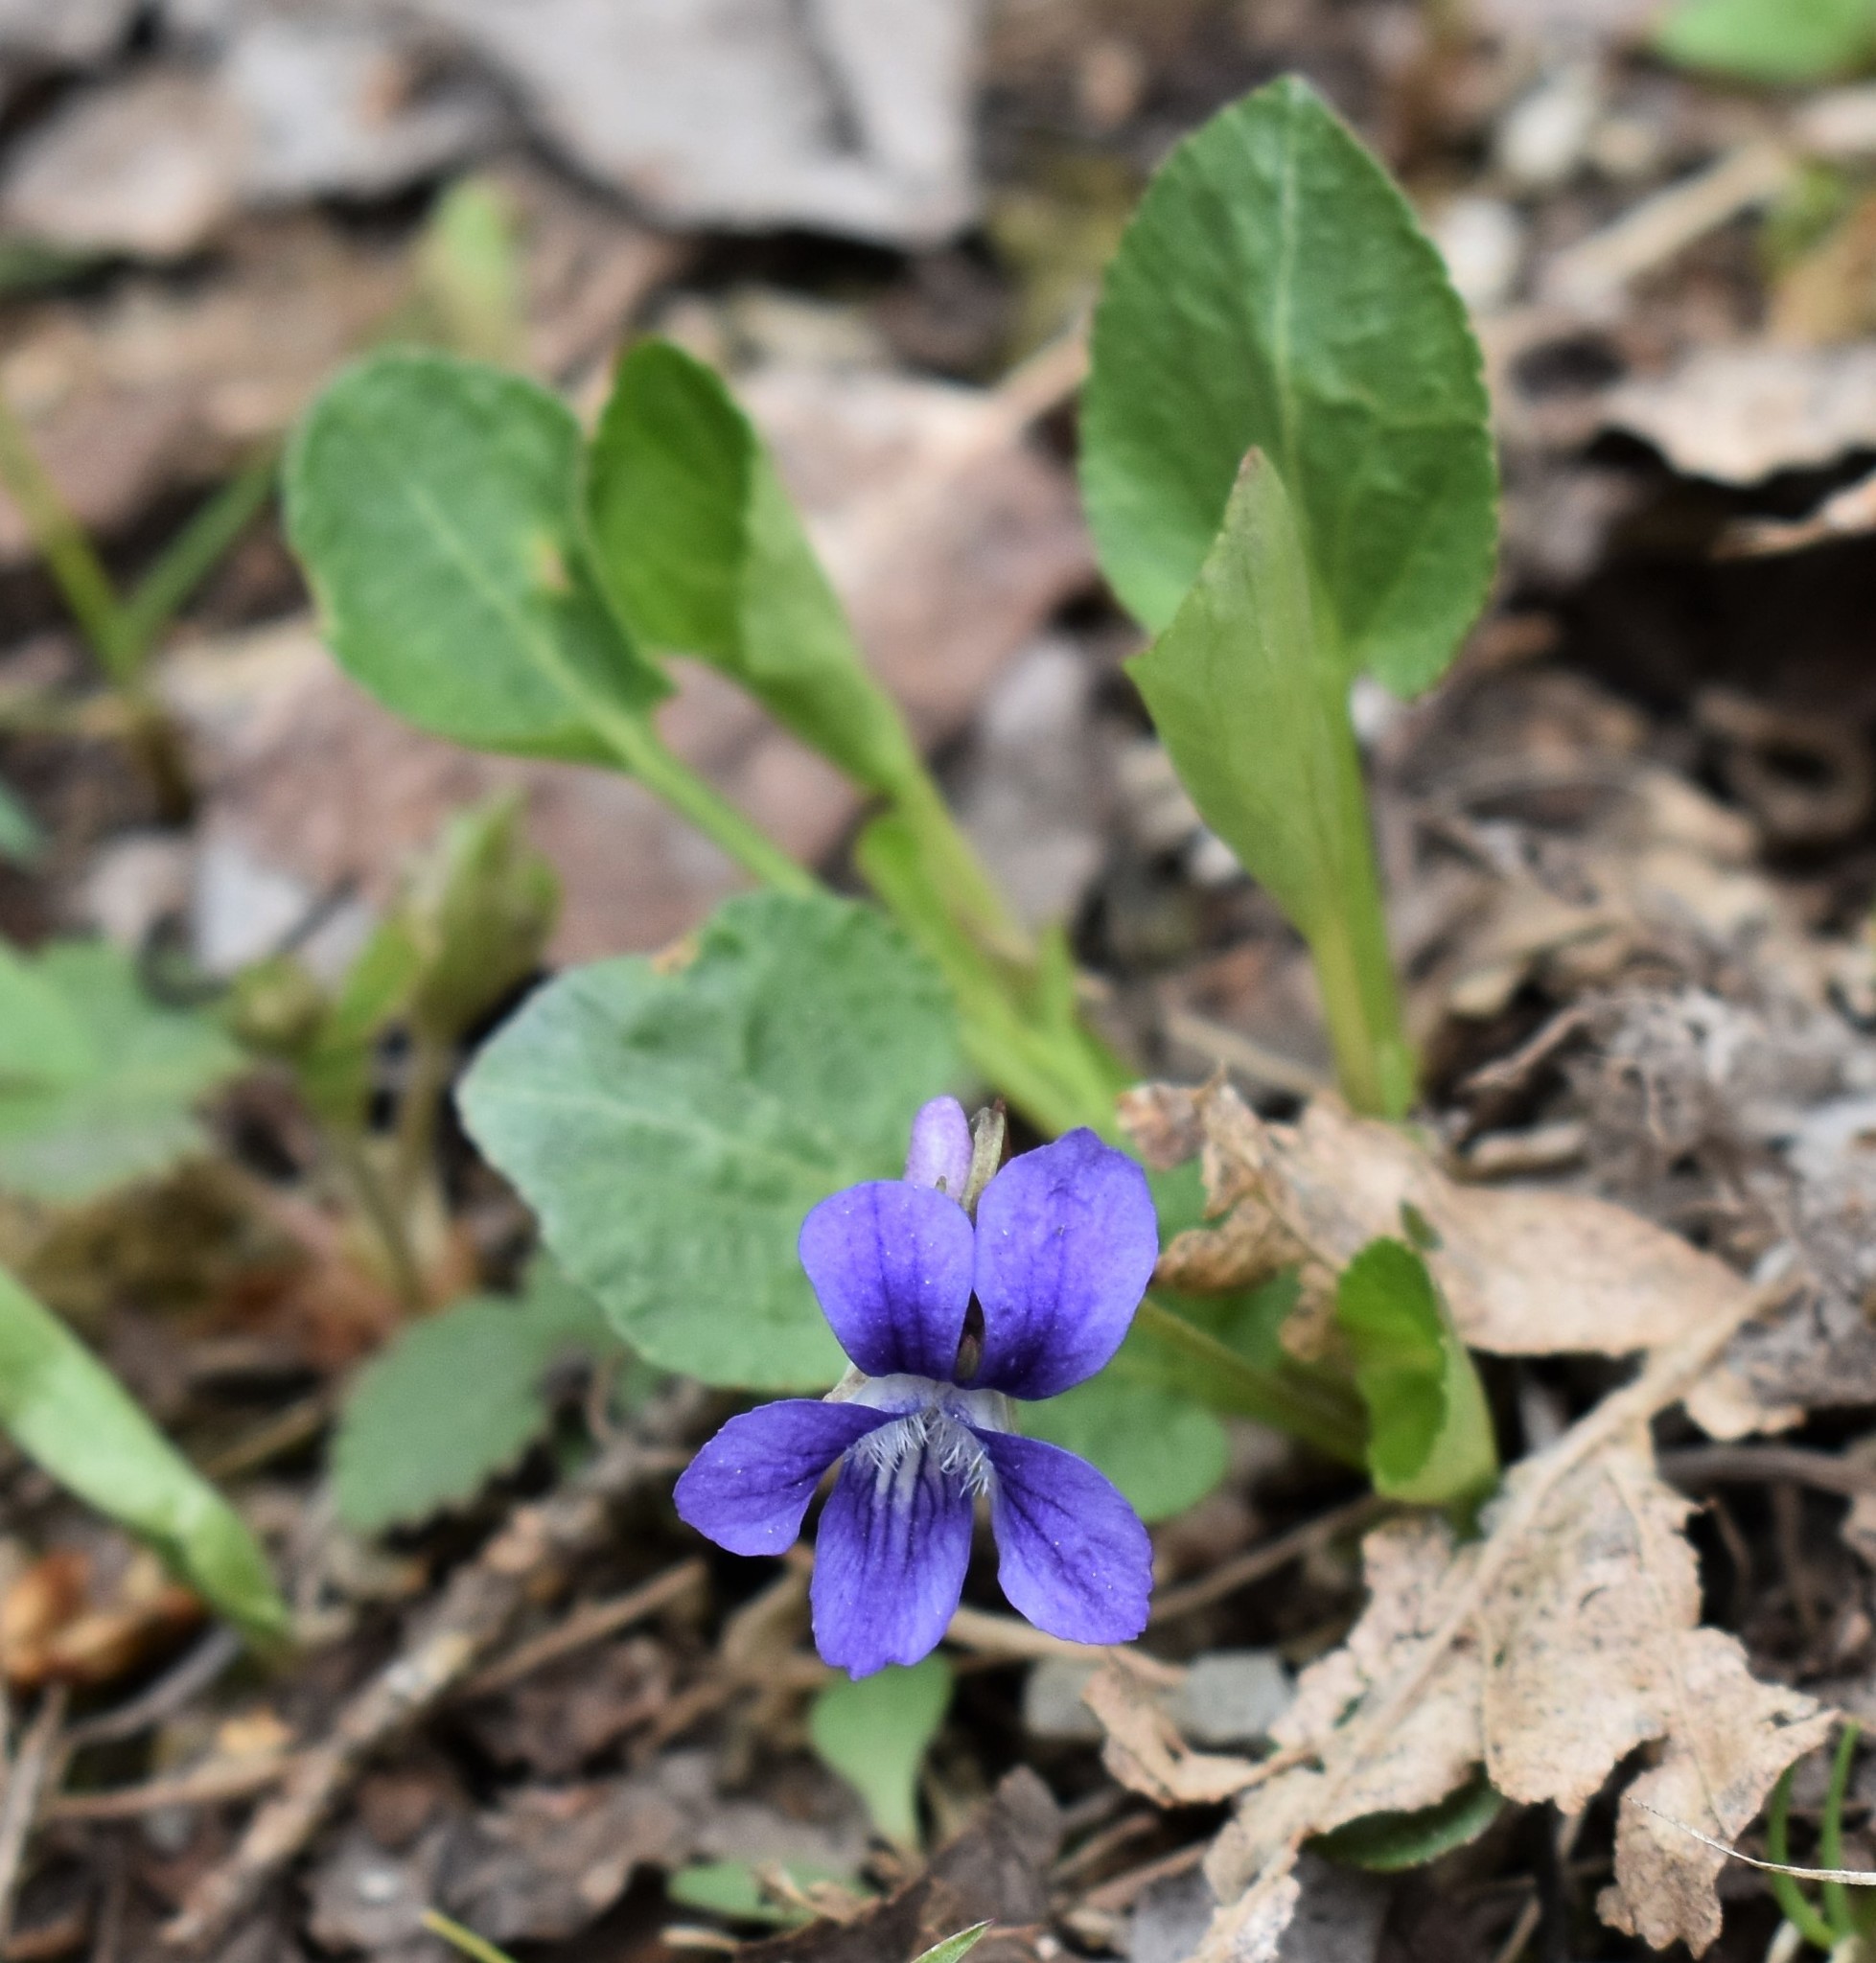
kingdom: Plantae
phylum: Tracheophyta
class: Magnoliopsida
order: Malpighiales
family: Violaceae
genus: Viola
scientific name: Viola adunca
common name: Sand violet
